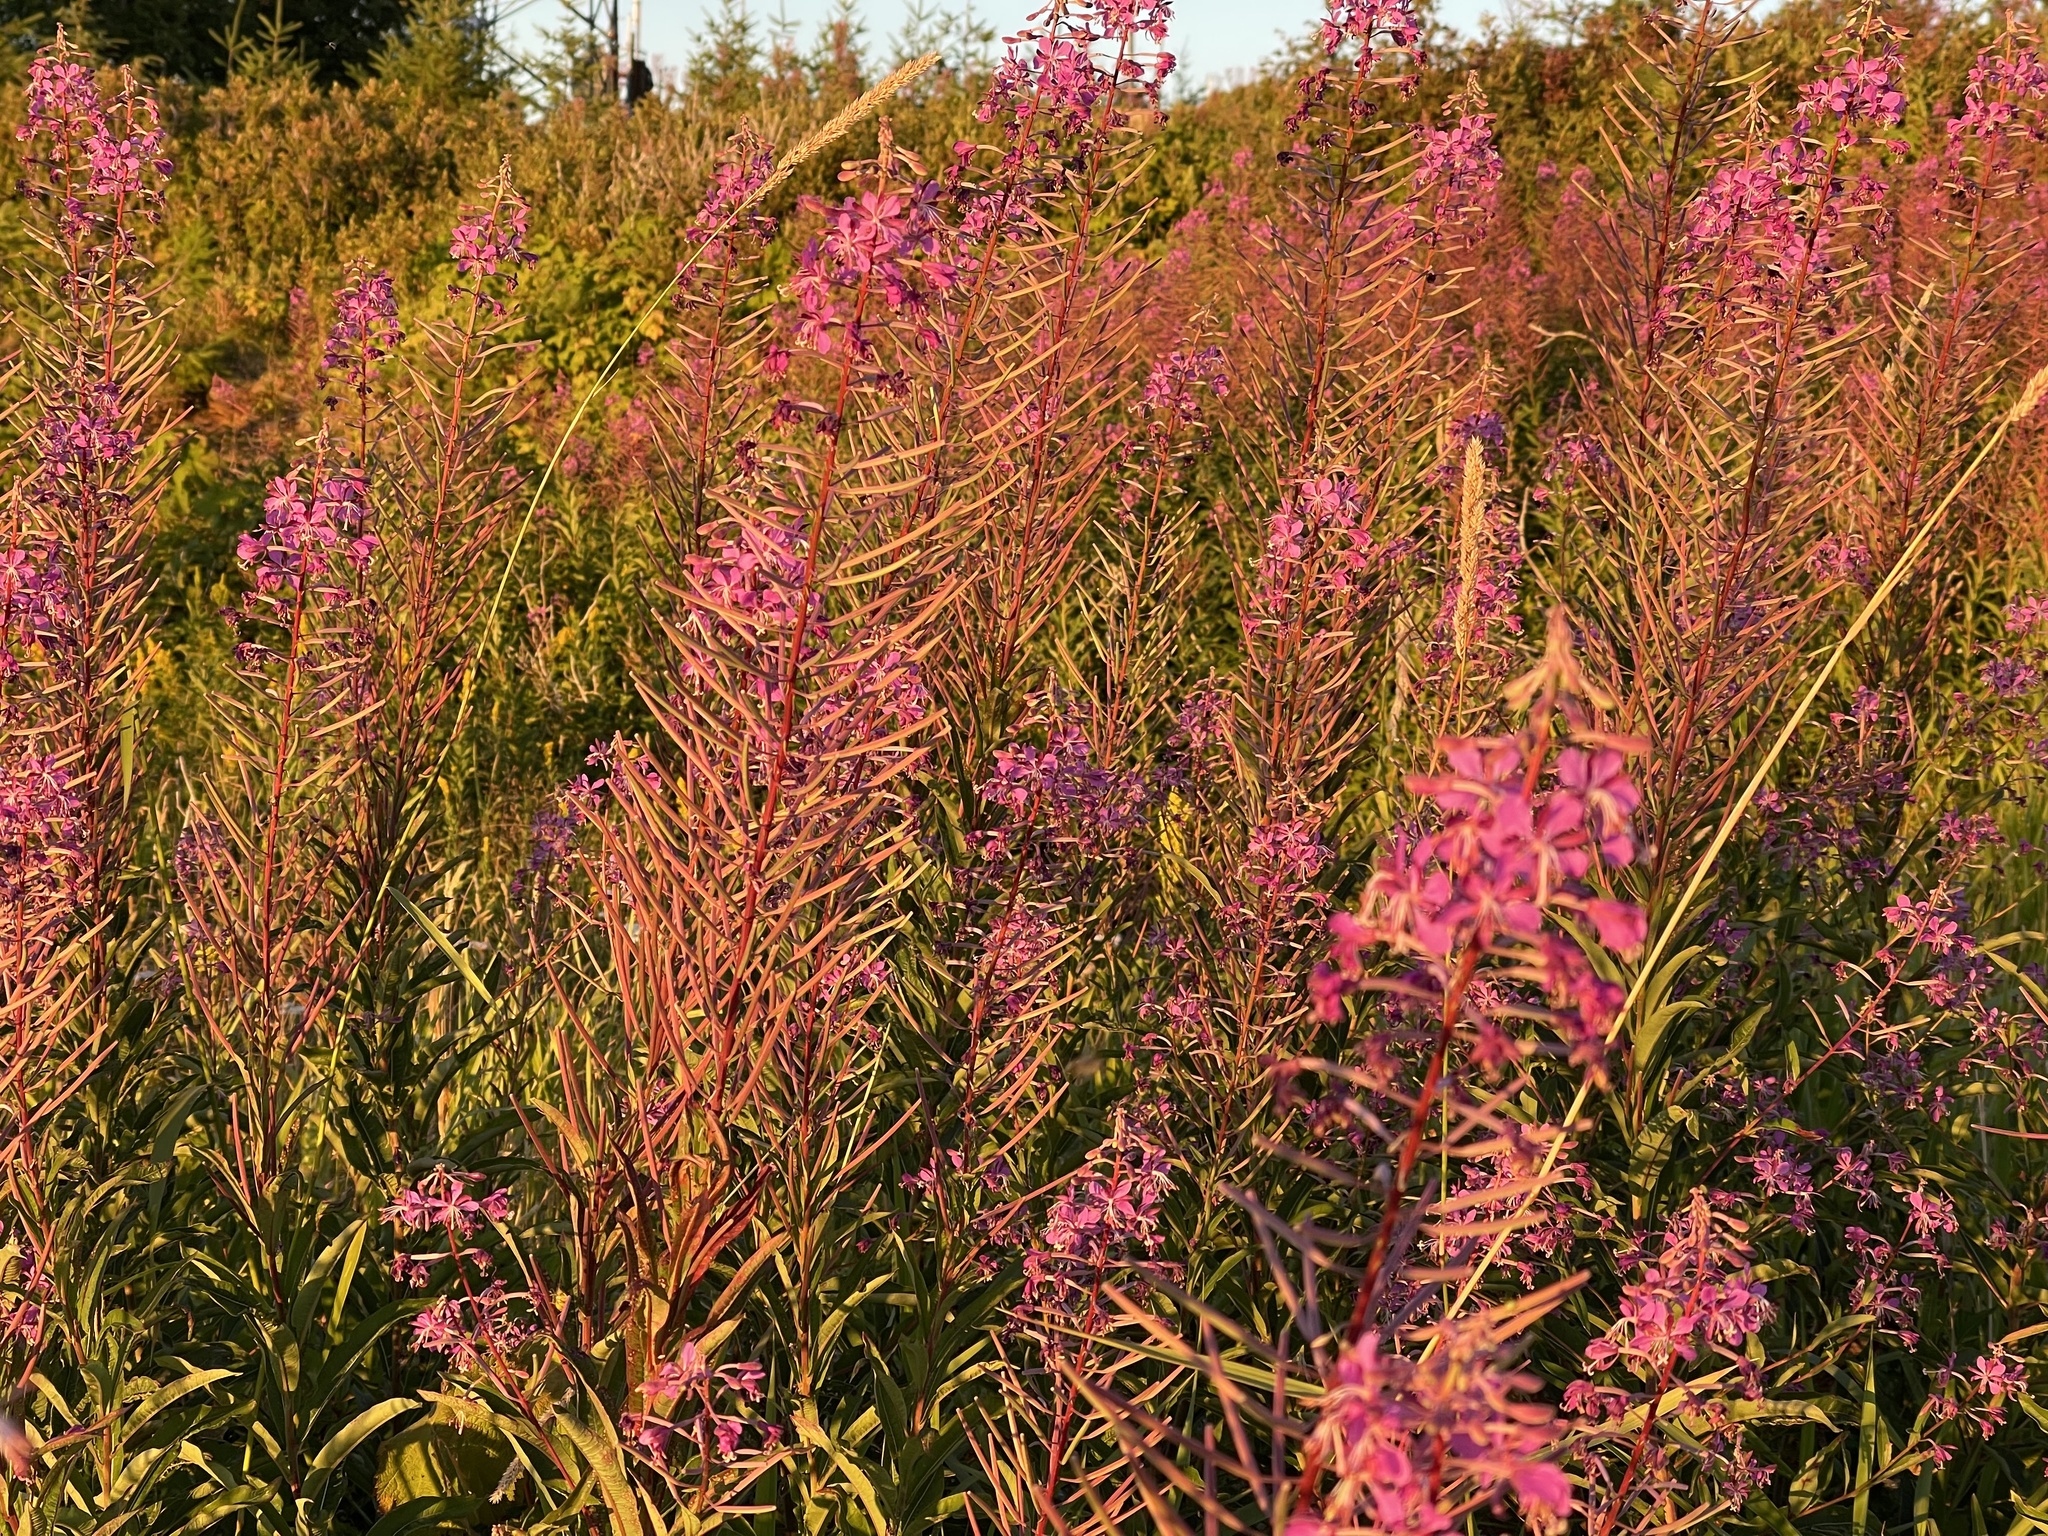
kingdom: Plantae
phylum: Tracheophyta
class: Magnoliopsida
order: Myrtales
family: Onagraceae
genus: Chamaenerion
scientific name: Chamaenerion angustifolium
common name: Fireweed
